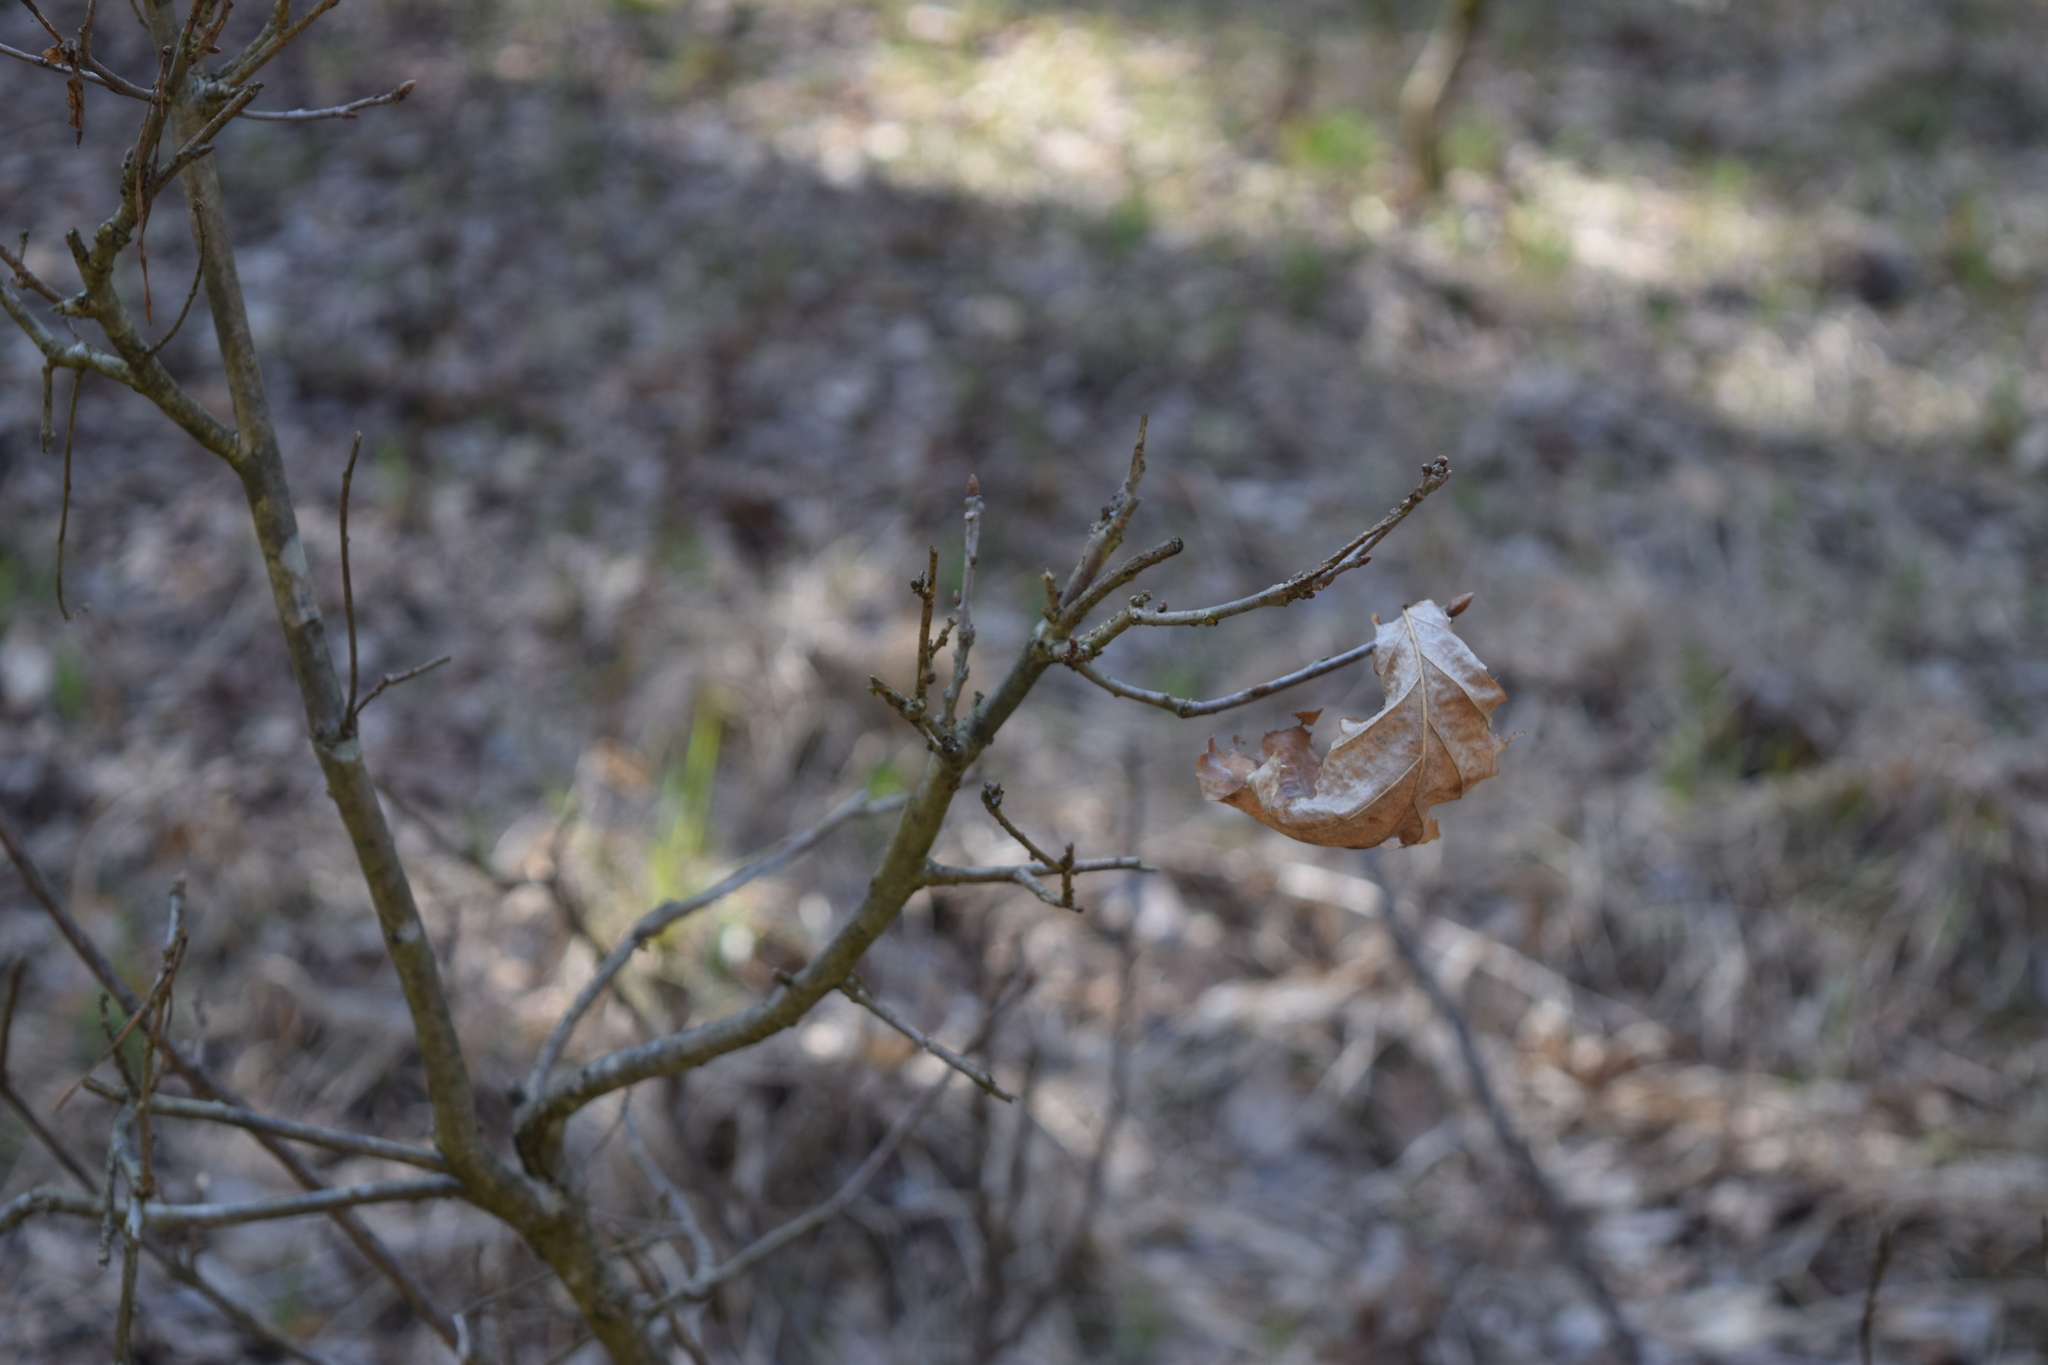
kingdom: Plantae
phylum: Tracheophyta
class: Magnoliopsida
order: Fagales
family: Fagaceae
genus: Quercus
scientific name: Quercus robur
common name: Pedunculate oak
